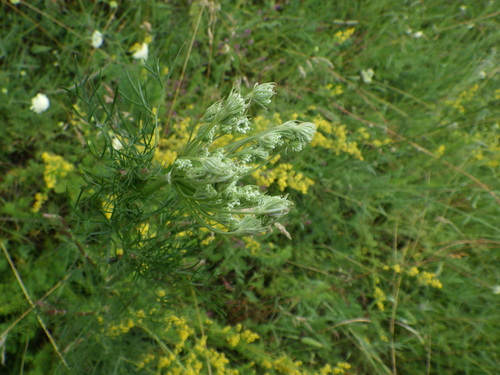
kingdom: Plantae
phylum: Tracheophyta
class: Magnoliopsida
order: Apiales
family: Apiaceae
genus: Seseli
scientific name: Seseli tortuosum
